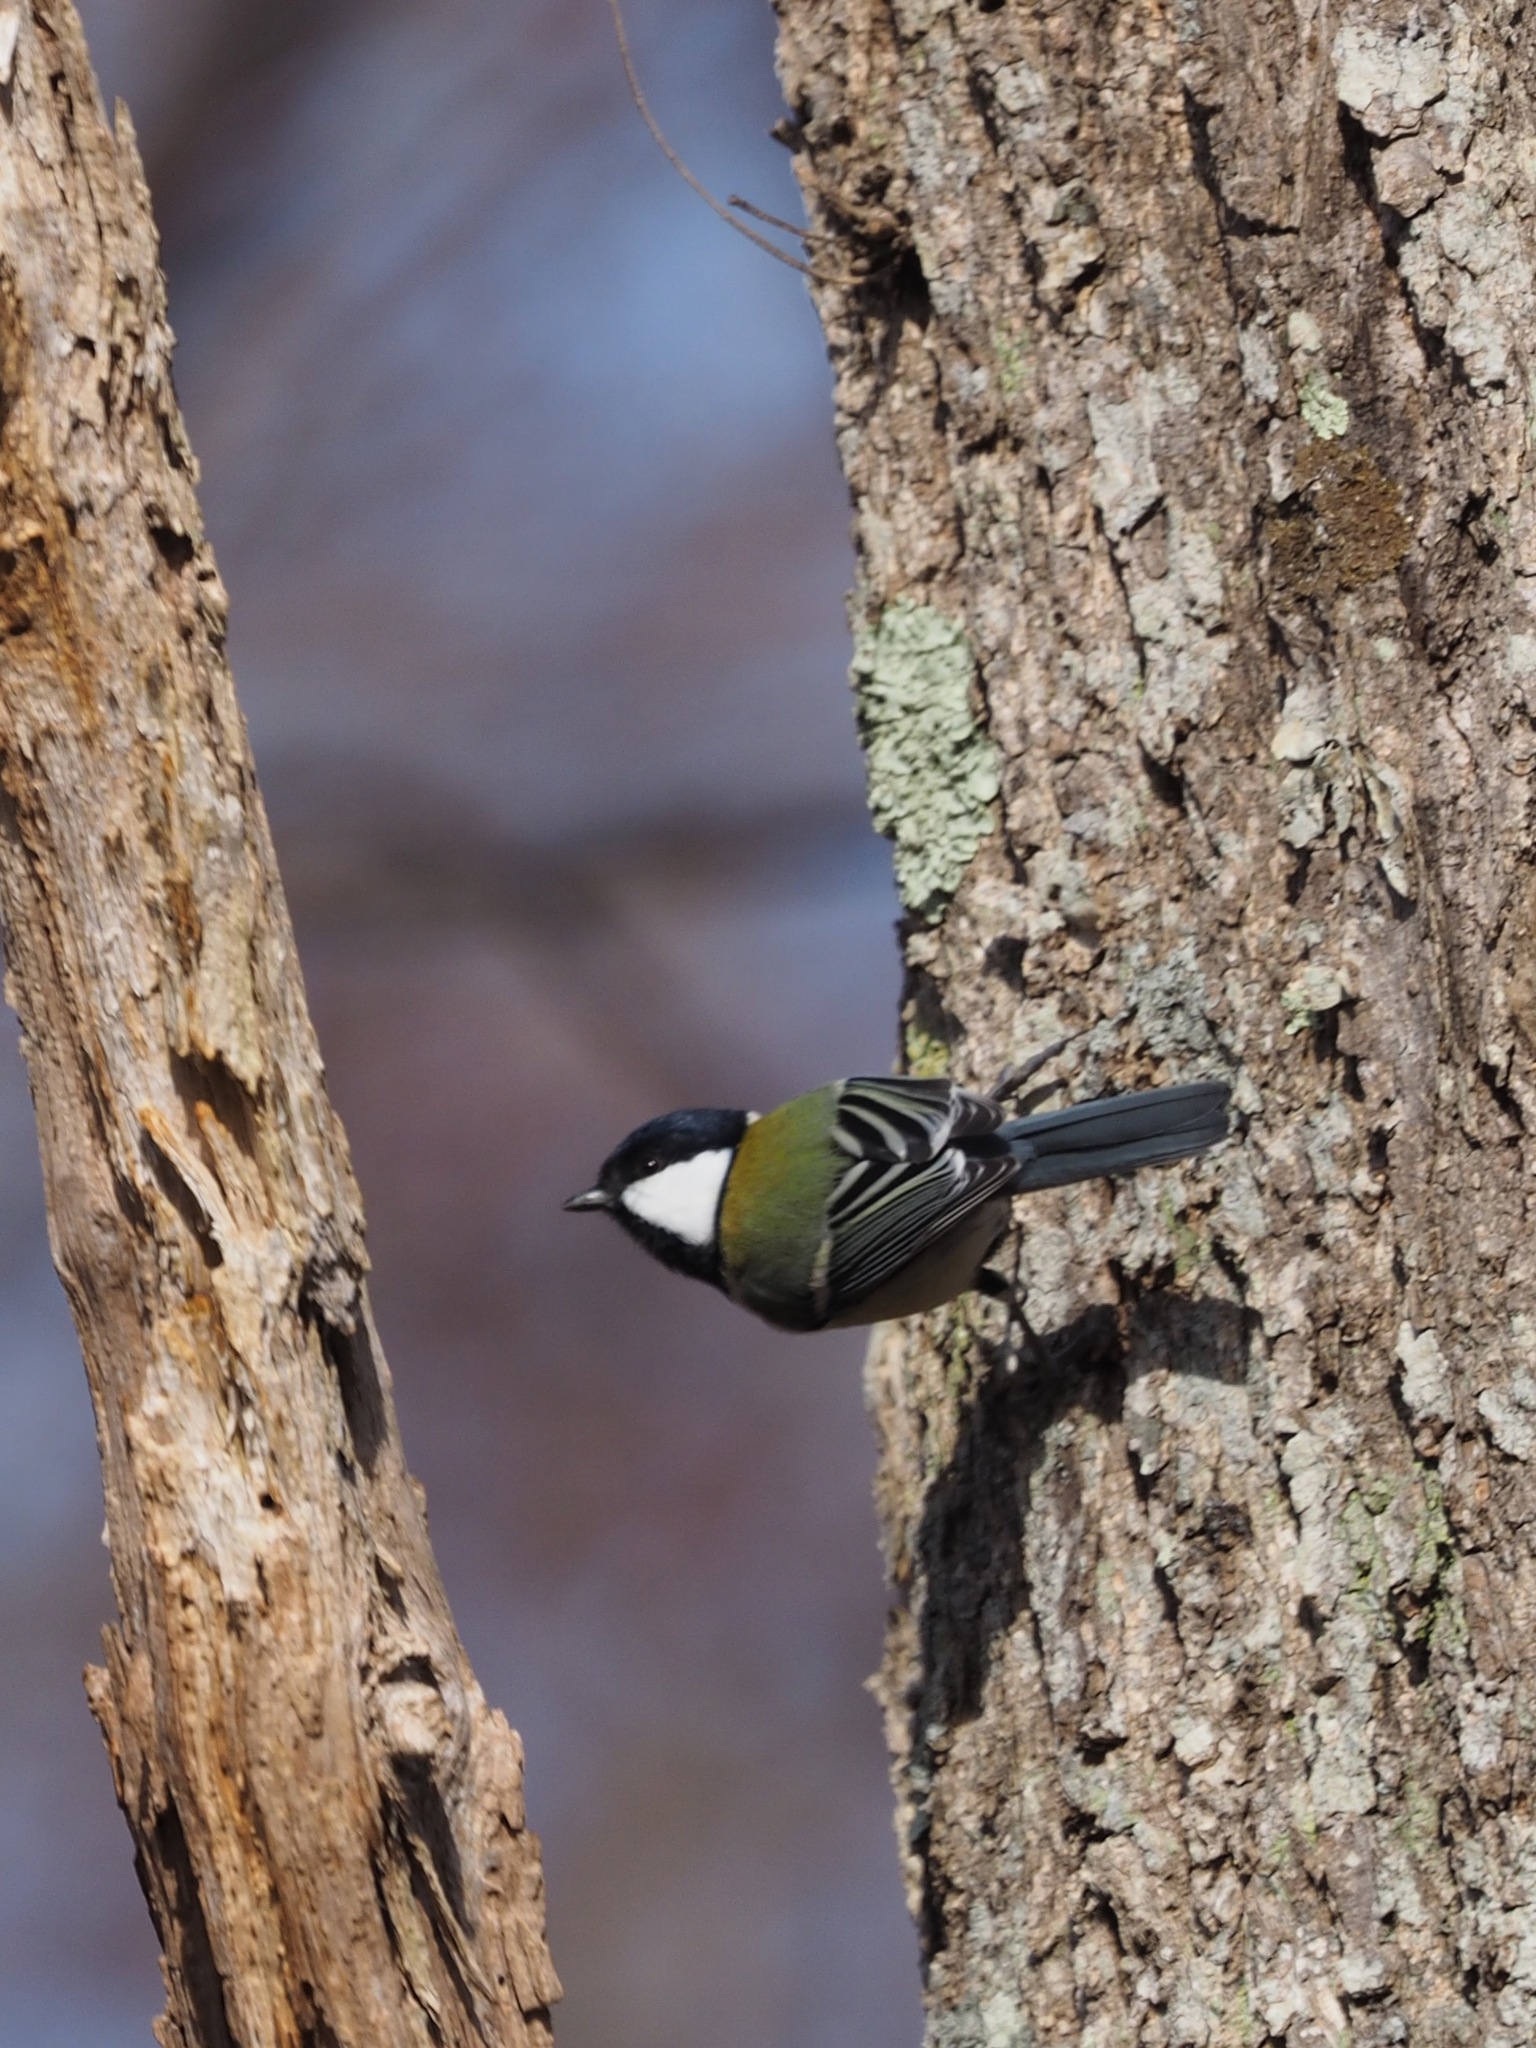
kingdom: Animalia
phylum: Chordata
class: Aves
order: Passeriformes
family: Paridae
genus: Parus
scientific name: Parus minor
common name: Japanese tit
